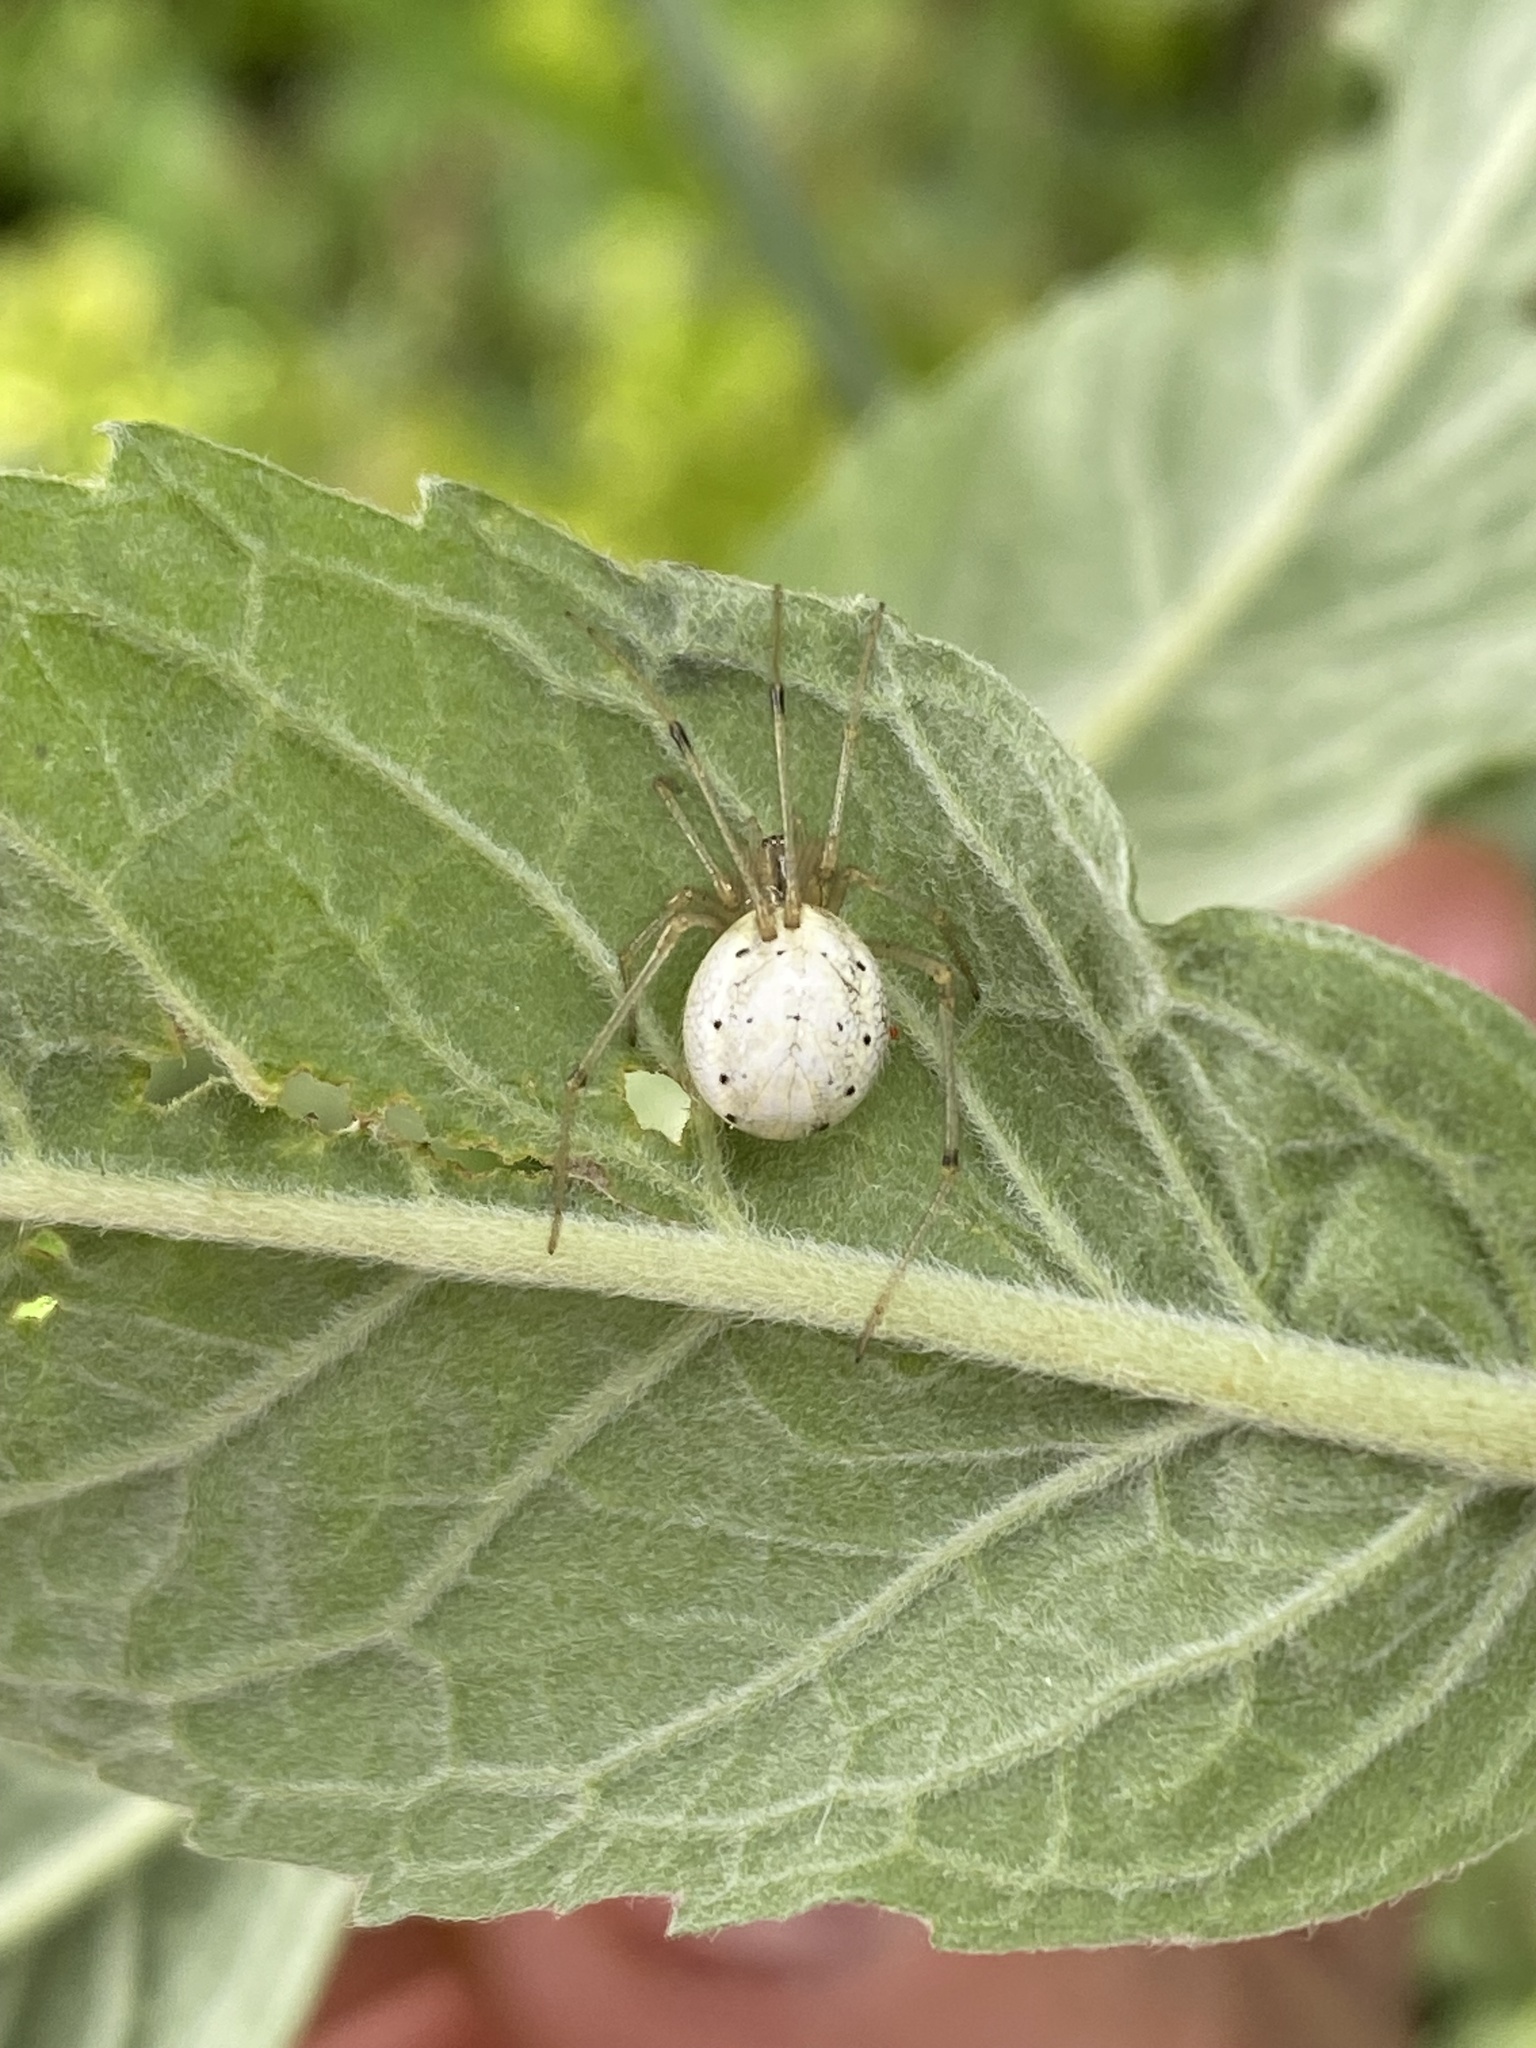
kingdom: Animalia
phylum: Arthropoda
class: Arachnida
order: Araneae
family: Theridiidae
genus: Enoplognatha
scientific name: Enoplognatha ovata
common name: Common candy-striped spider
